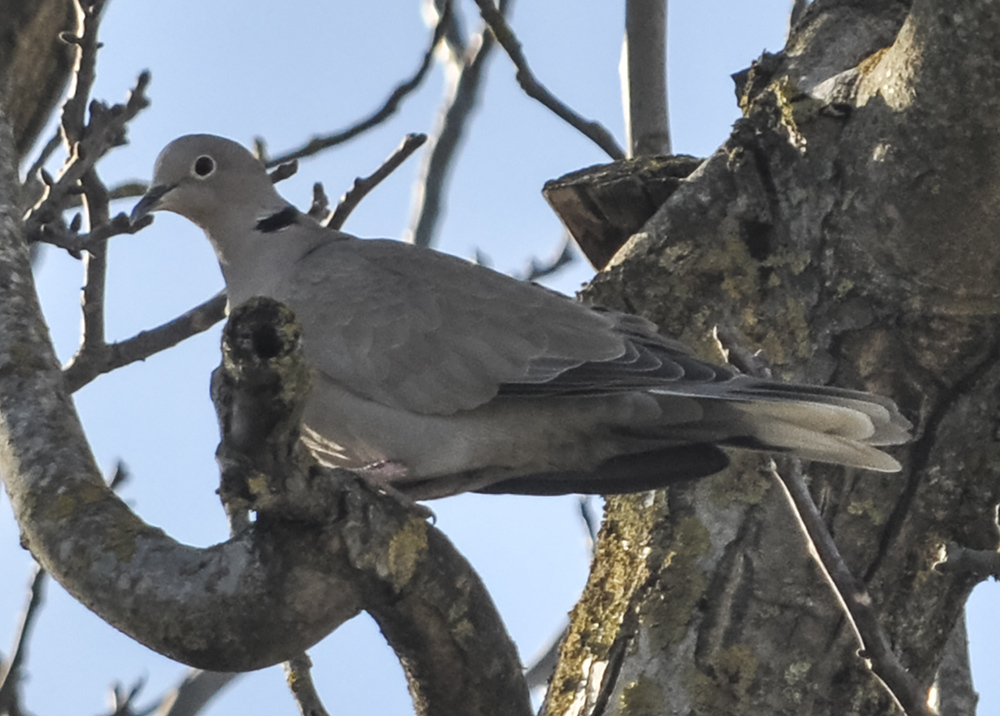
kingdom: Animalia
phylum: Chordata
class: Aves
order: Columbiformes
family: Columbidae
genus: Streptopelia
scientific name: Streptopelia decaocto
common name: Eurasian collared dove
